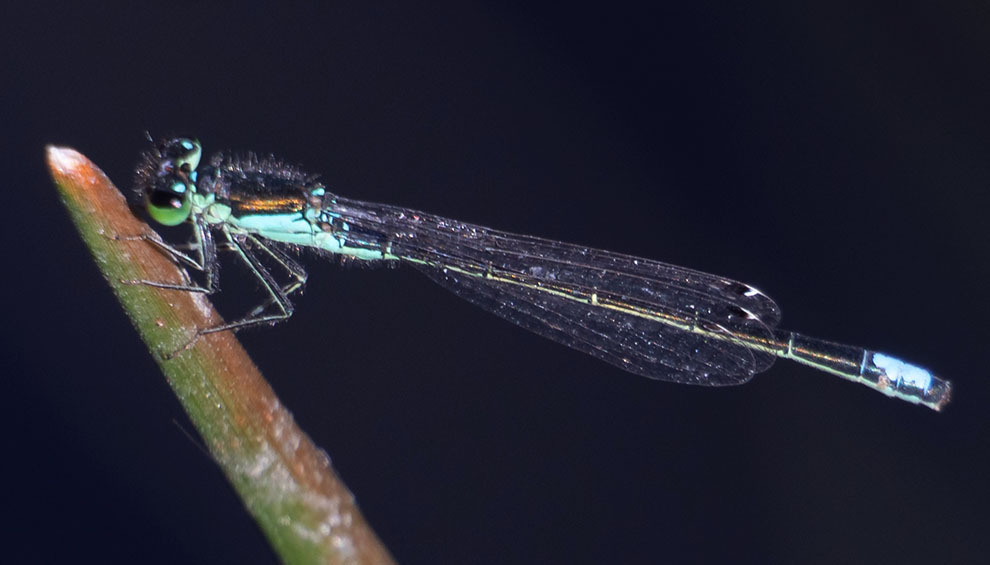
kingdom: Animalia
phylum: Arthropoda
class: Insecta
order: Odonata
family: Coenagrionidae
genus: Ischnura
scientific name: Ischnura denticollis
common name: Black-fronted forktail
